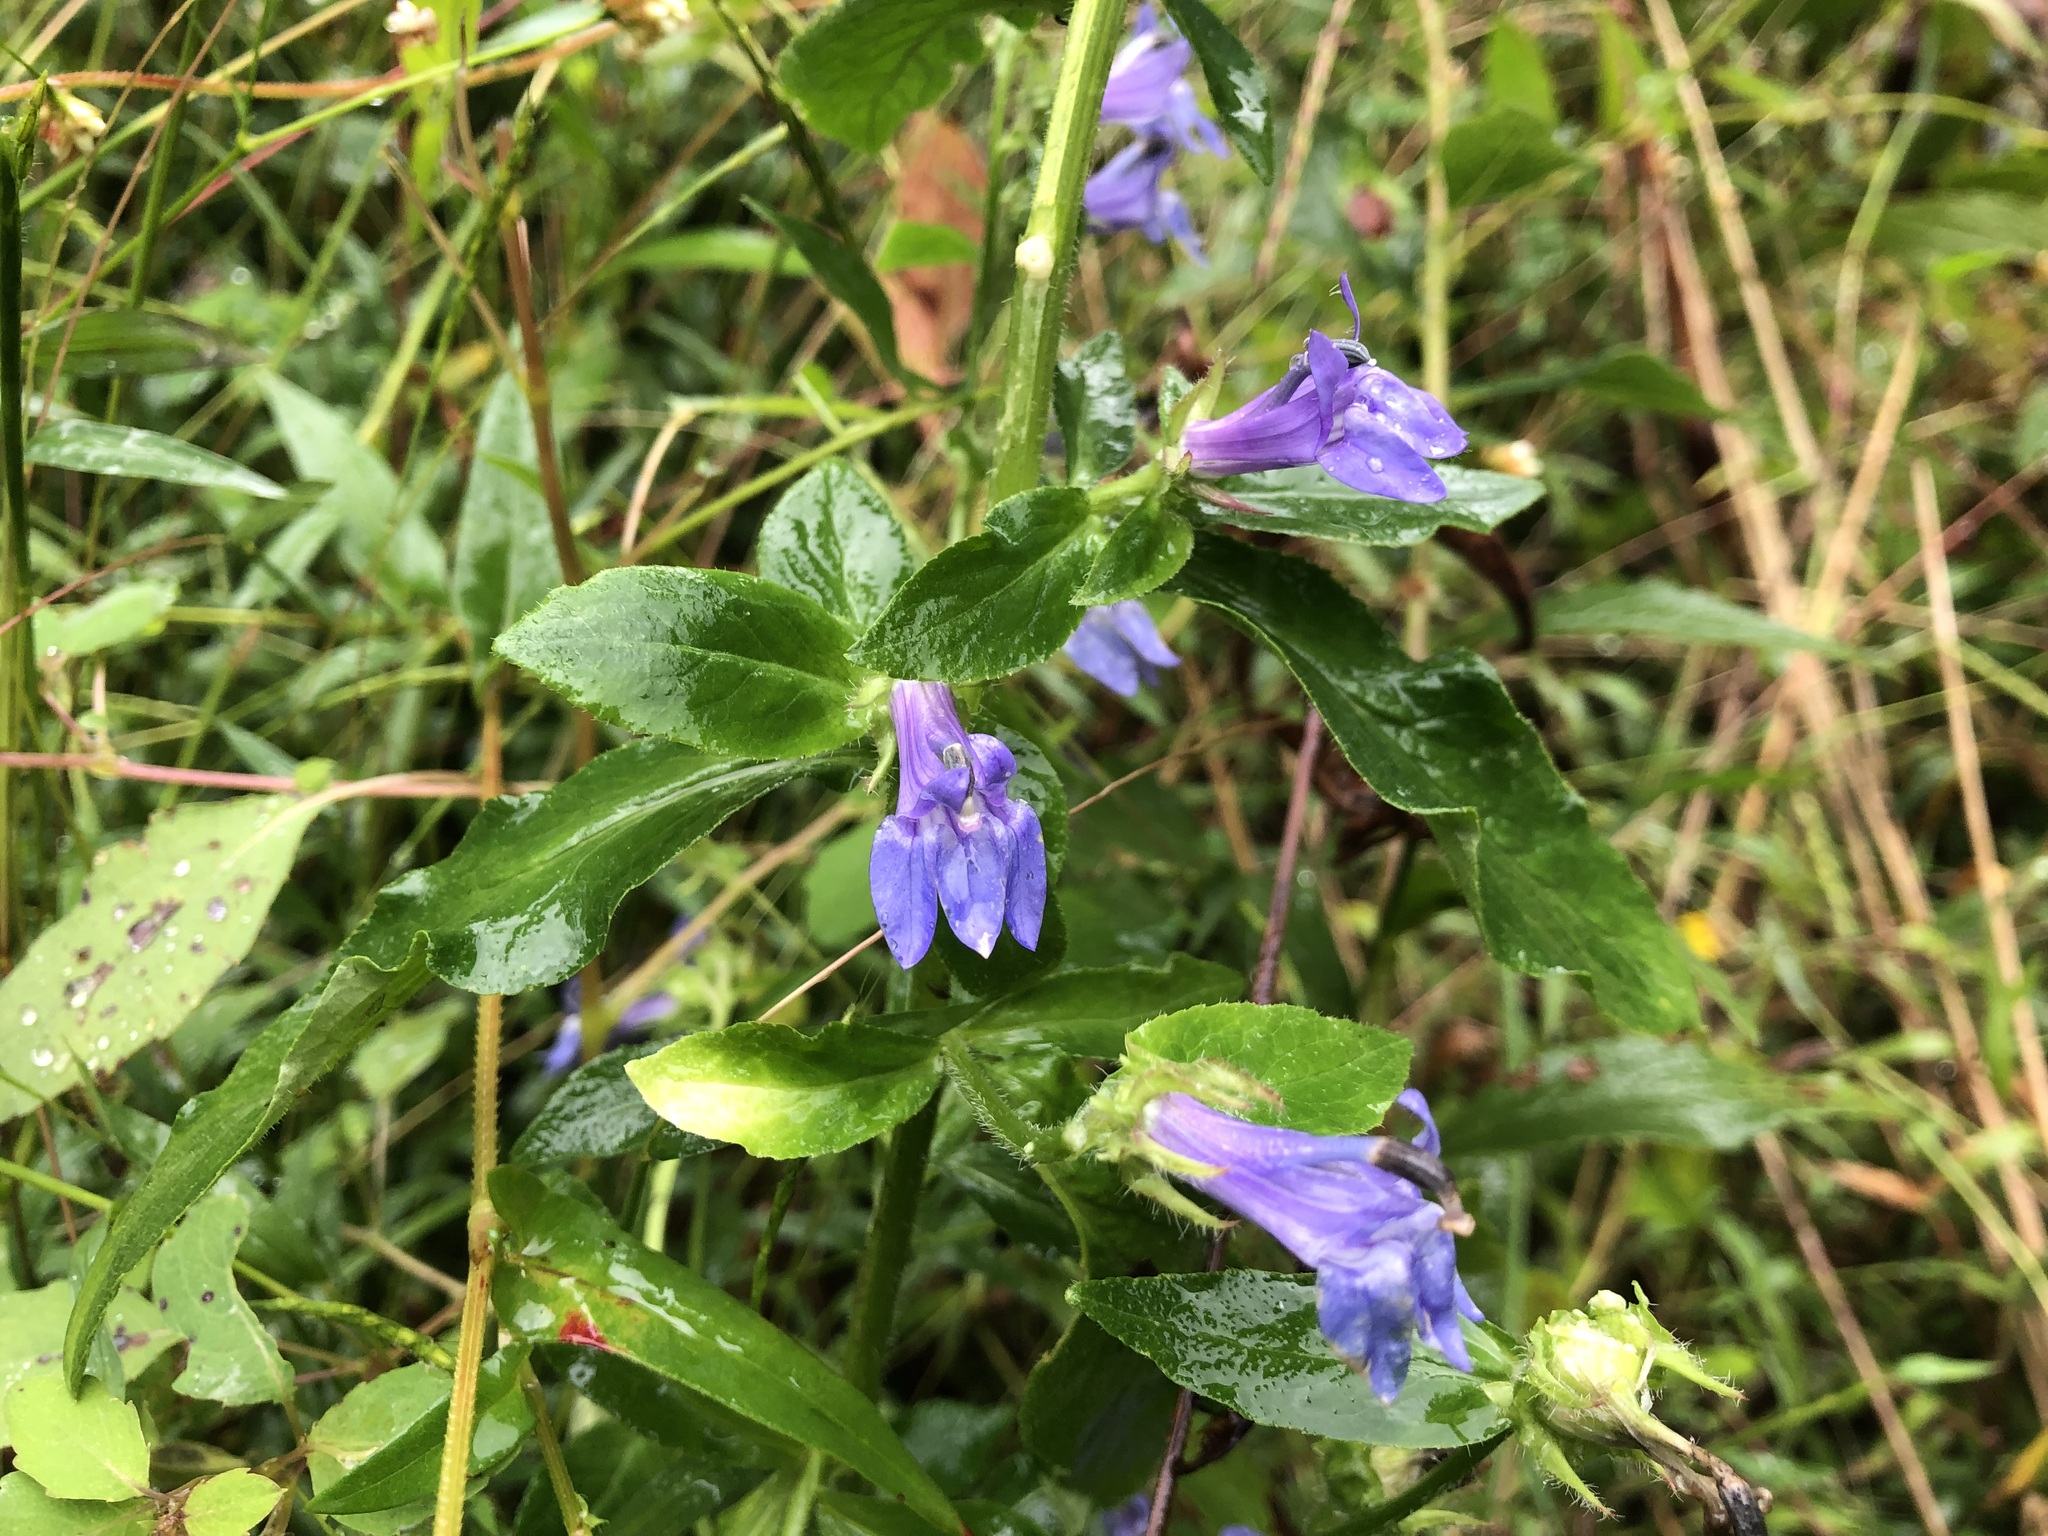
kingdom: Plantae
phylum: Tracheophyta
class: Magnoliopsida
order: Asterales
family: Campanulaceae
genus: Lobelia
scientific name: Lobelia siphilitica
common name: Great lobelia
